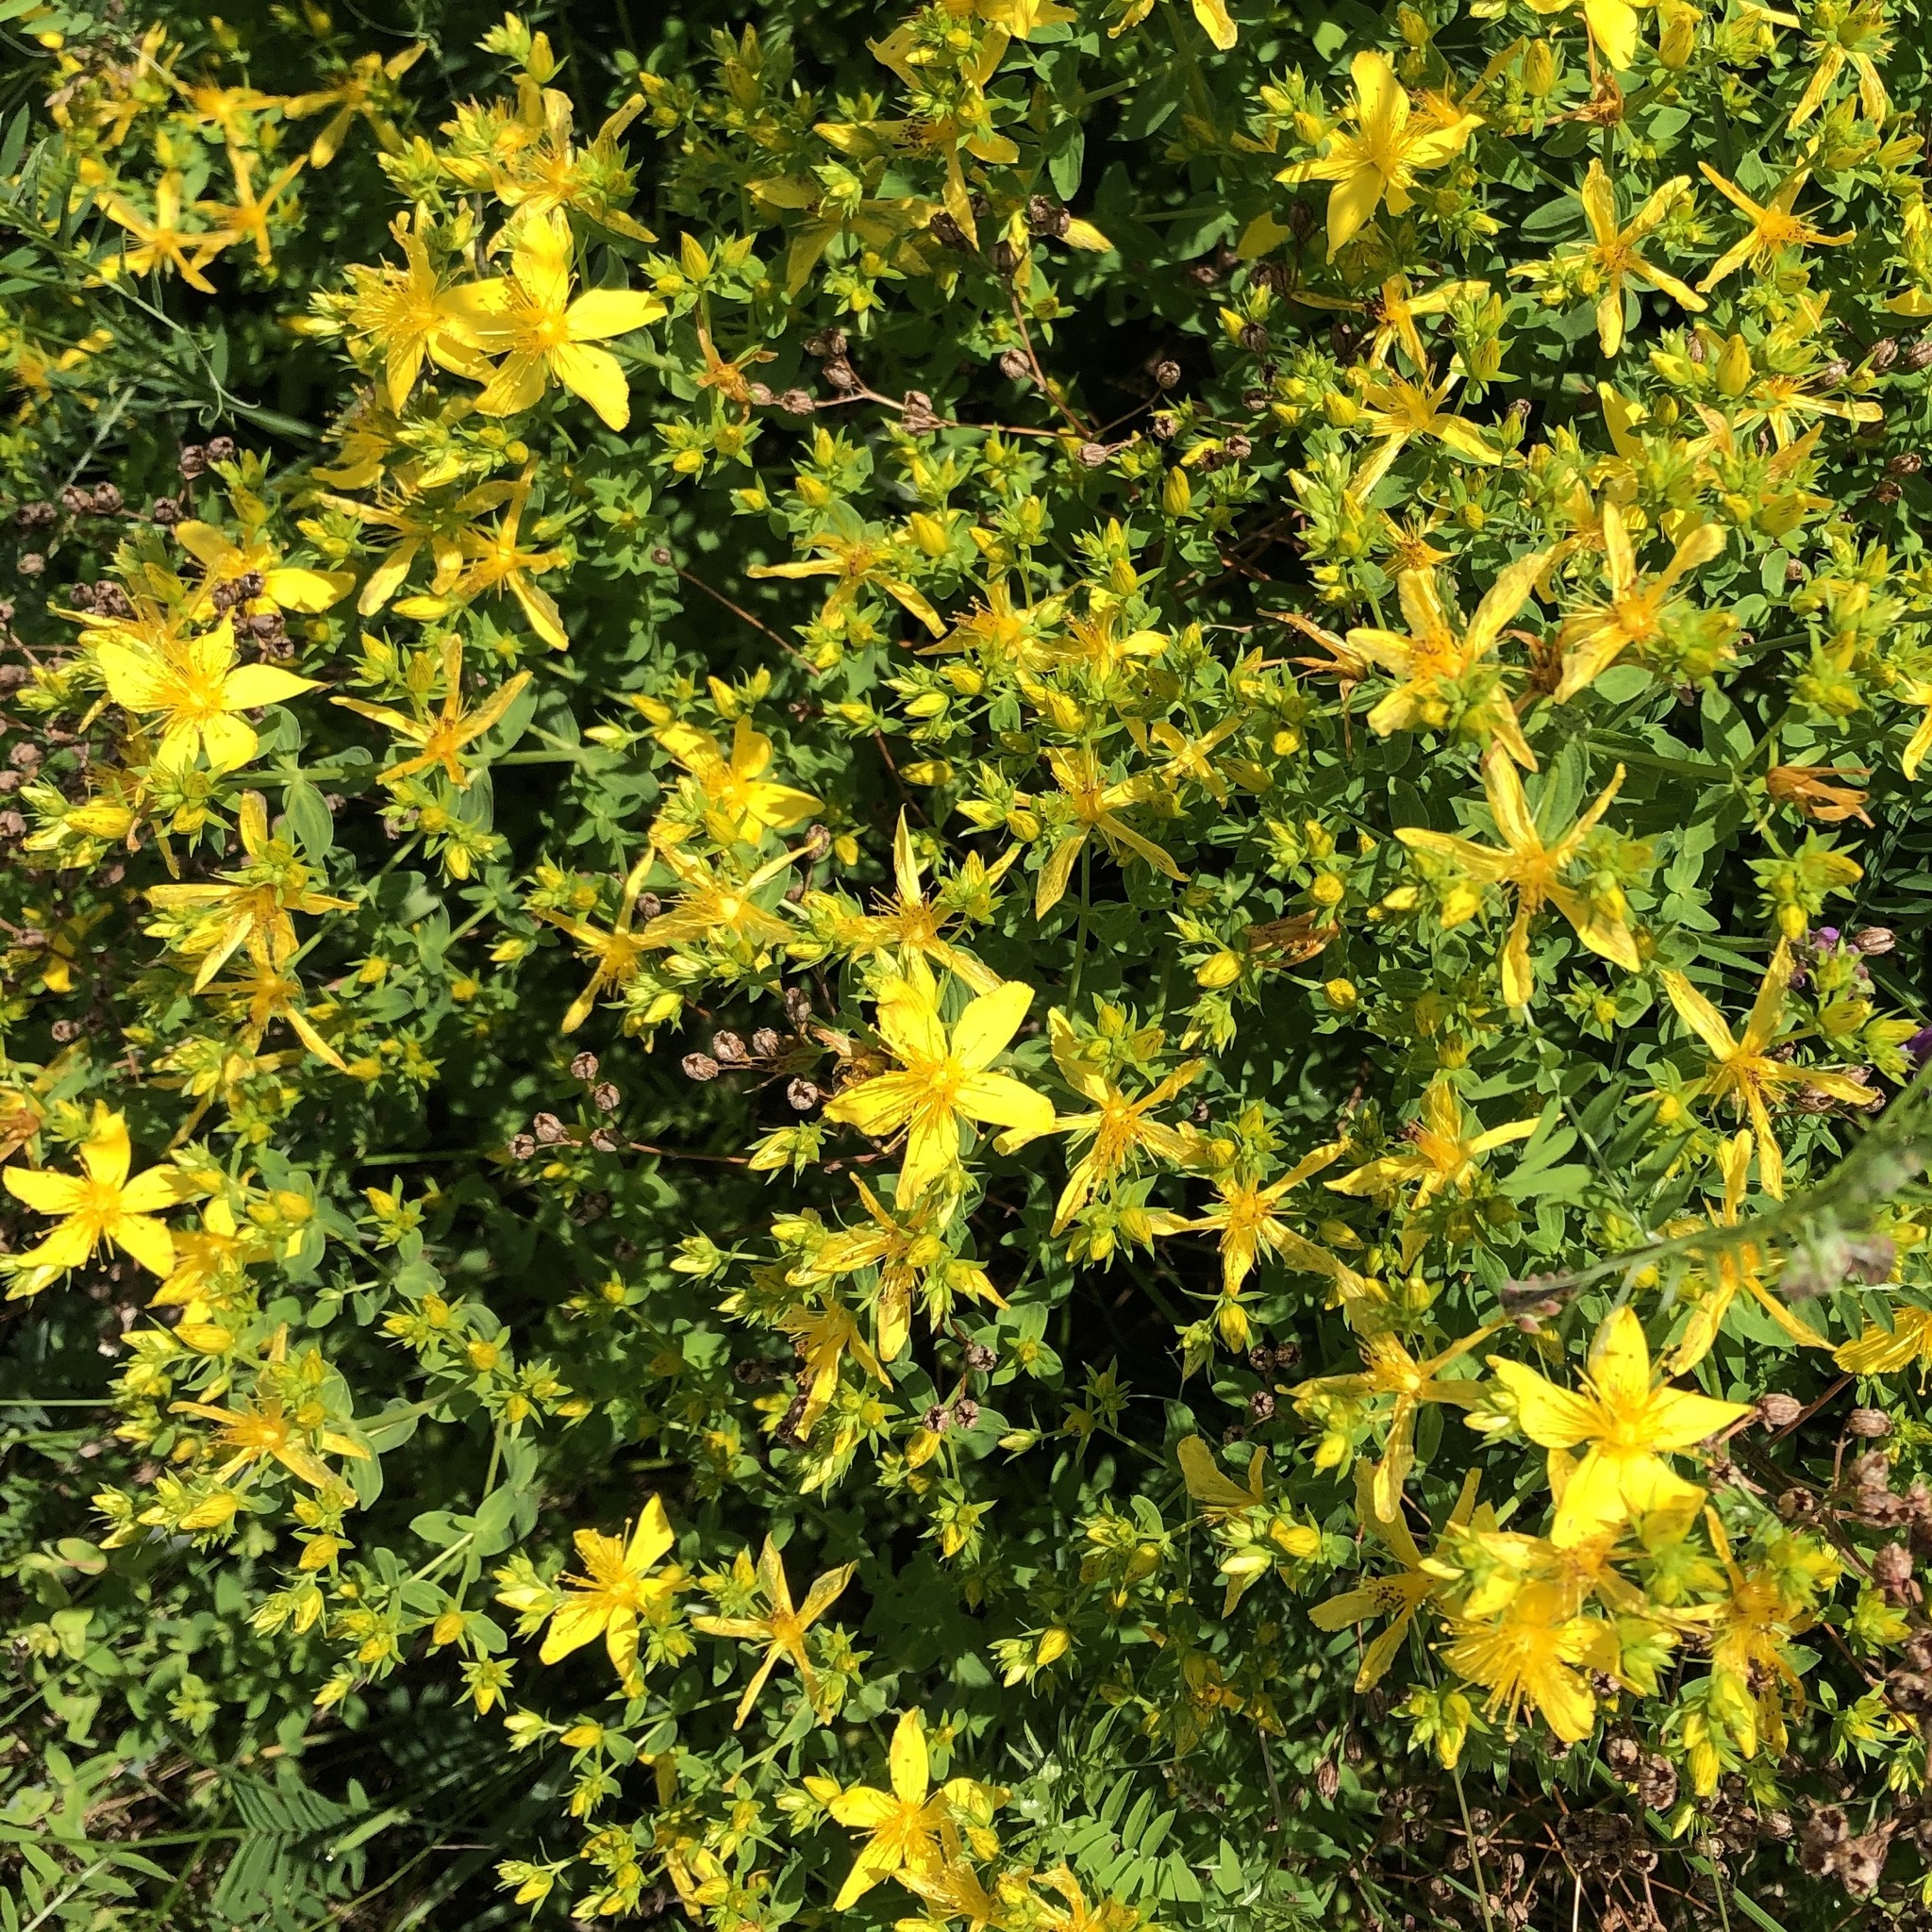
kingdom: Plantae
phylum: Tracheophyta
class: Magnoliopsida
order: Malpighiales
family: Hypericaceae
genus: Hypericum
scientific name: Hypericum perforatum
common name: Common st. johnswort
